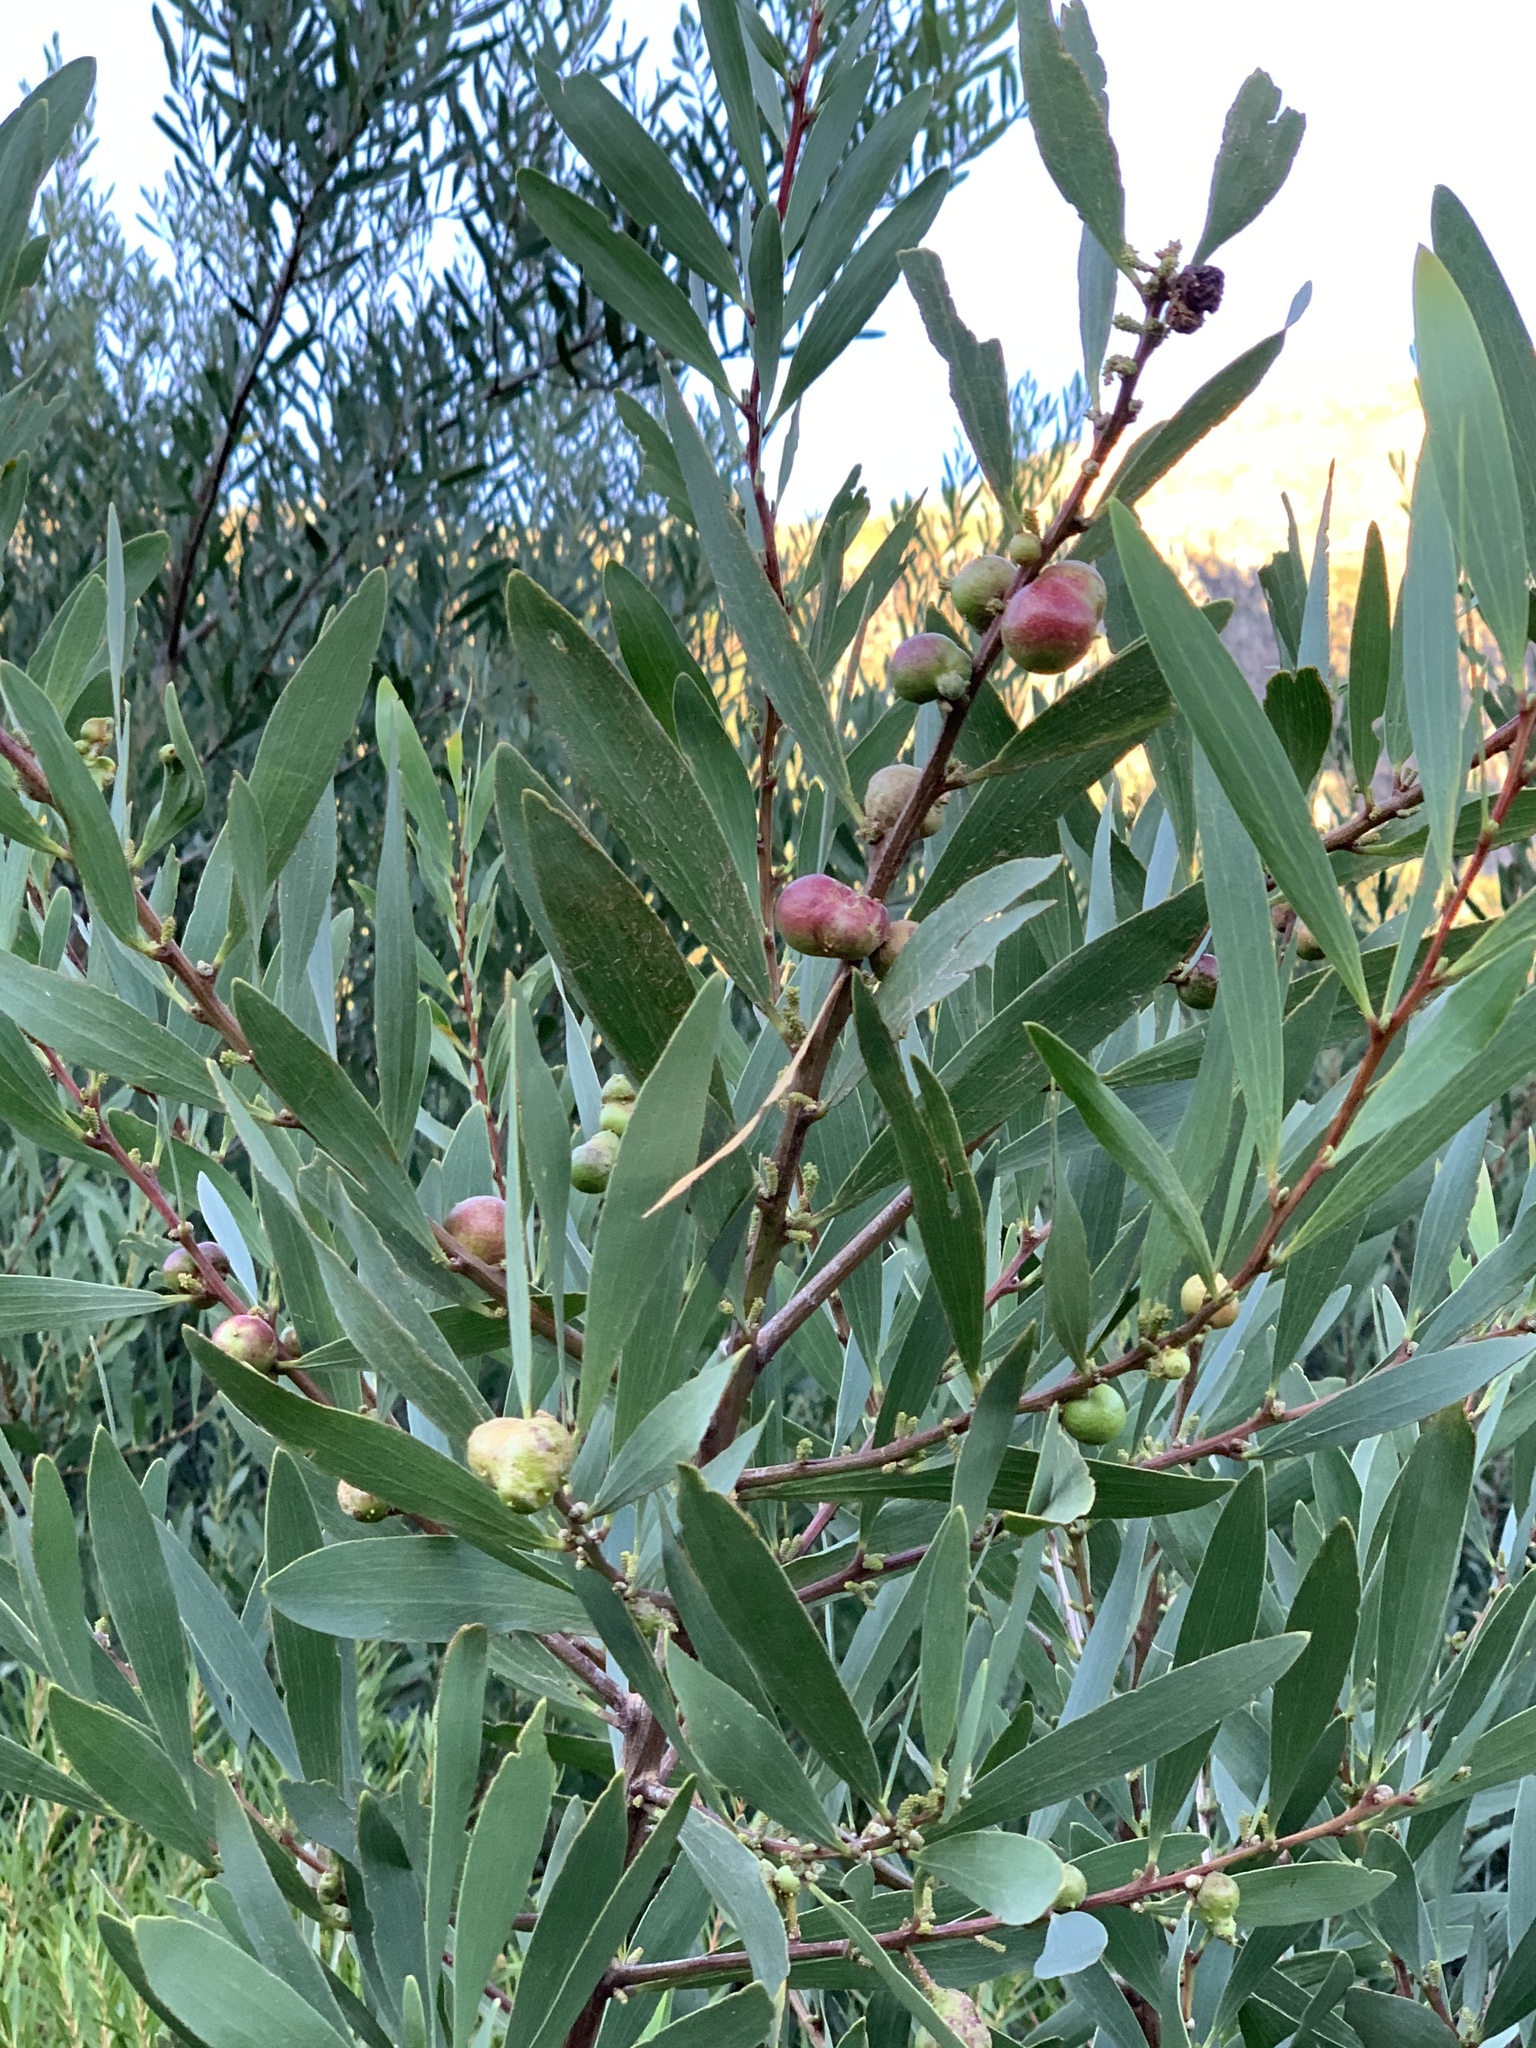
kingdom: Animalia
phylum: Arthropoda
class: Insecta
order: Hymenoptera
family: Pteromalidae
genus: Trichilogaster
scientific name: Trichilogaster acaciaelongifoliae
